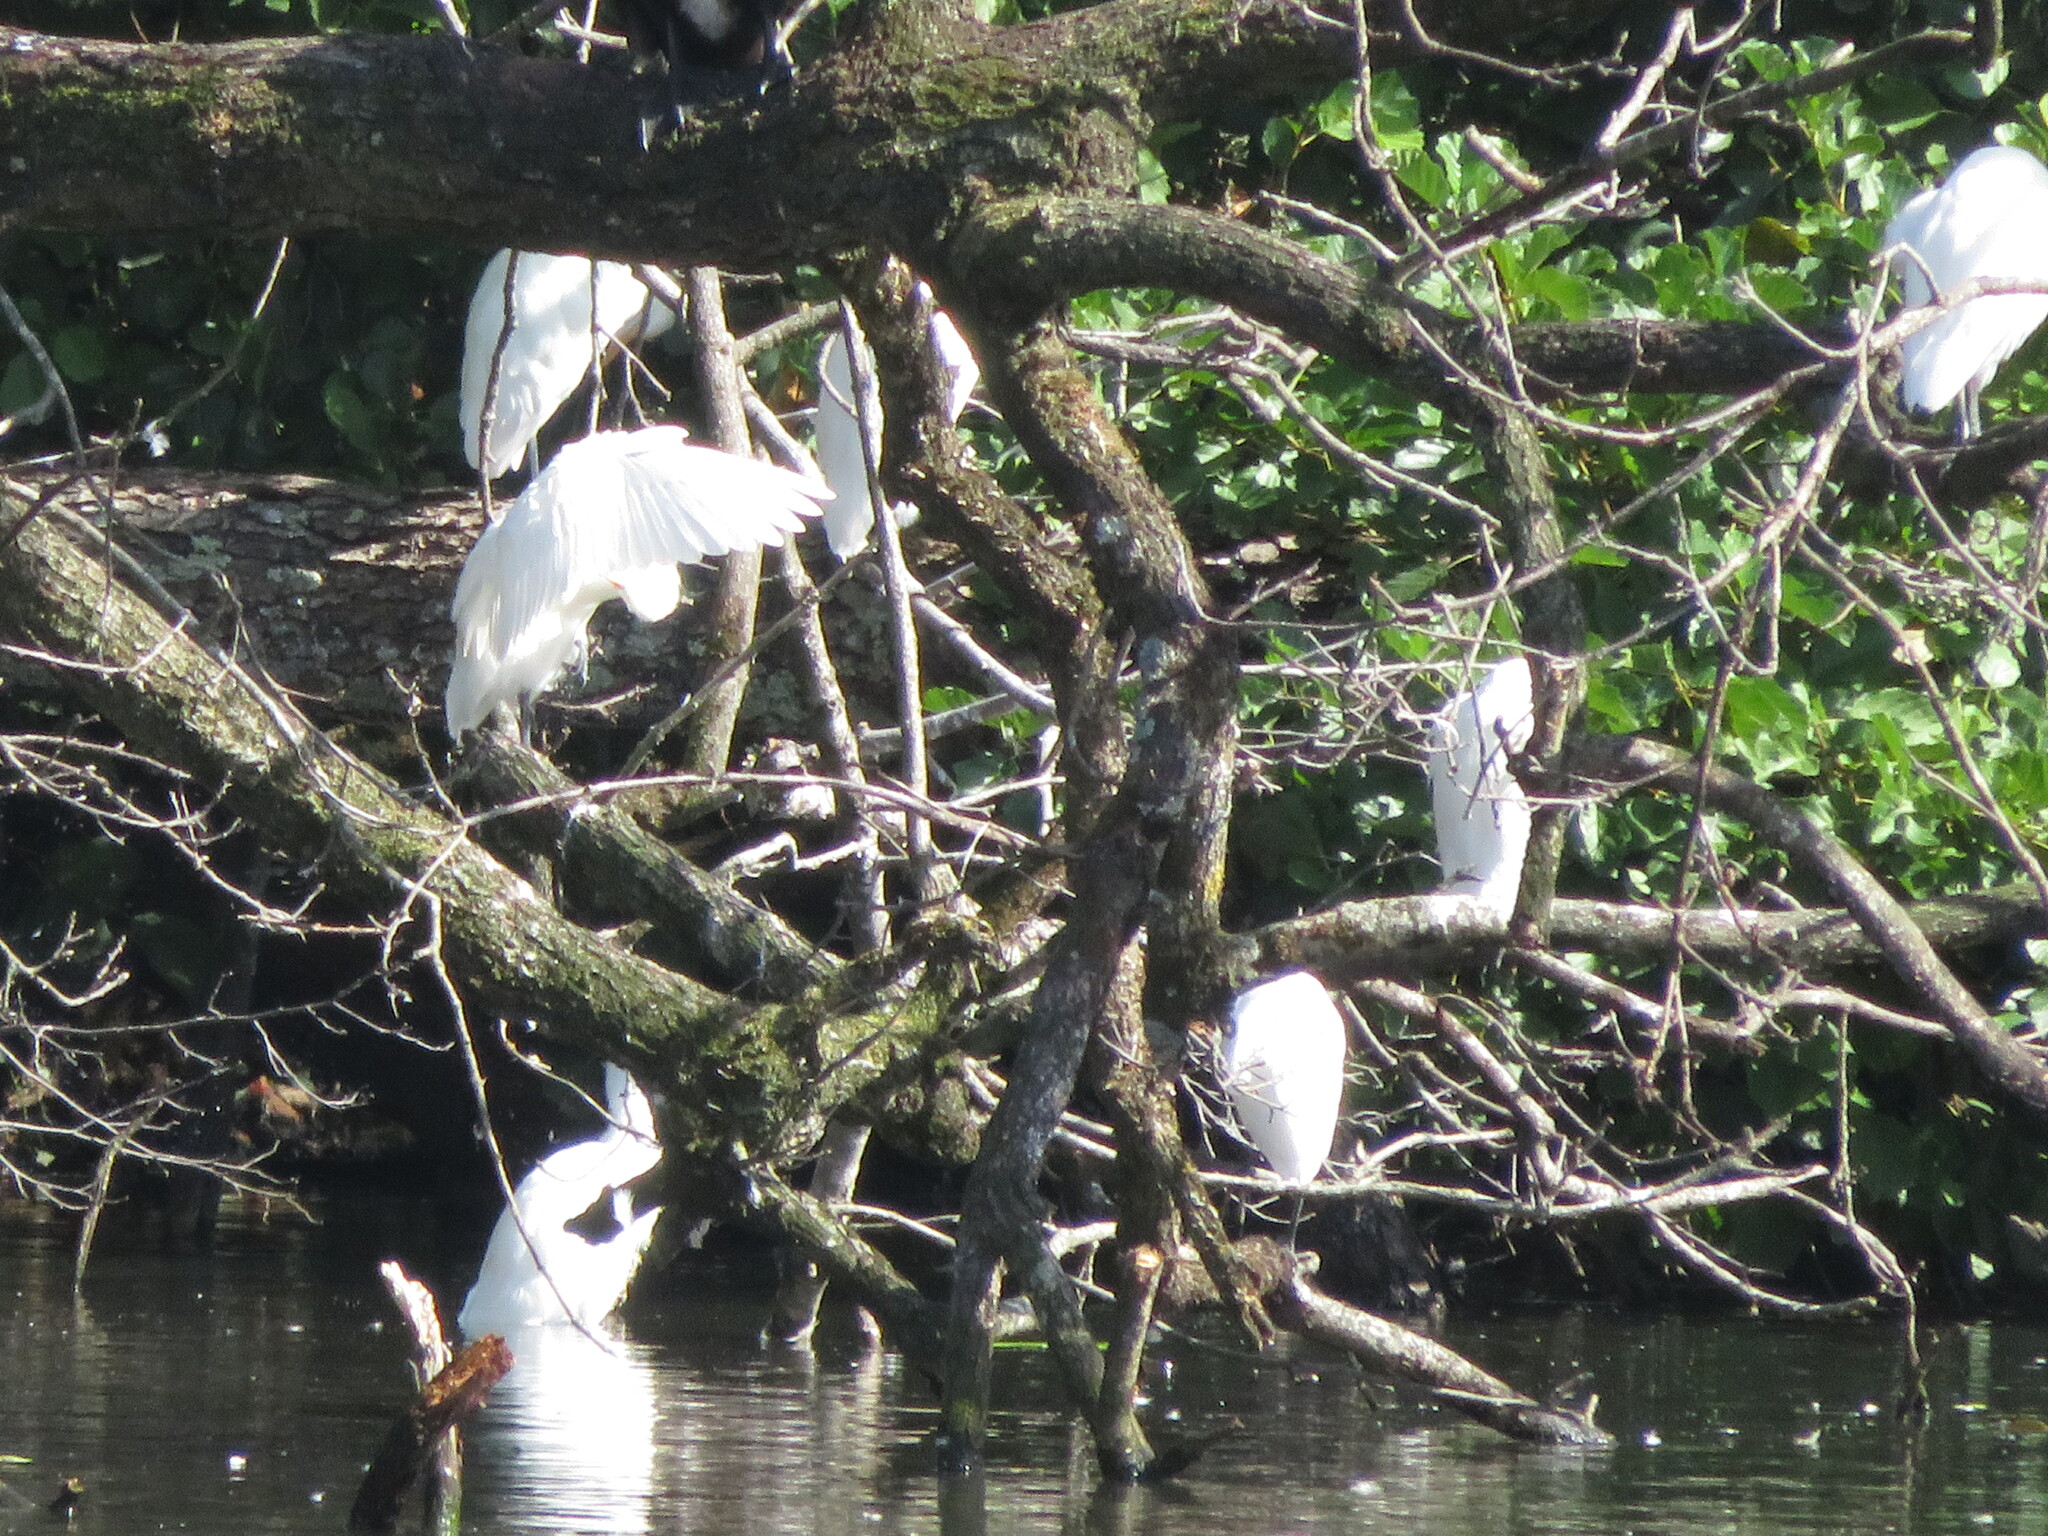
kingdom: Animalia
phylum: Chordata
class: Aves
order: Pelecaniformes
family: Ardeidae
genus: Bubulcus
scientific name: Bubulcus ibis
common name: Cattle egret
